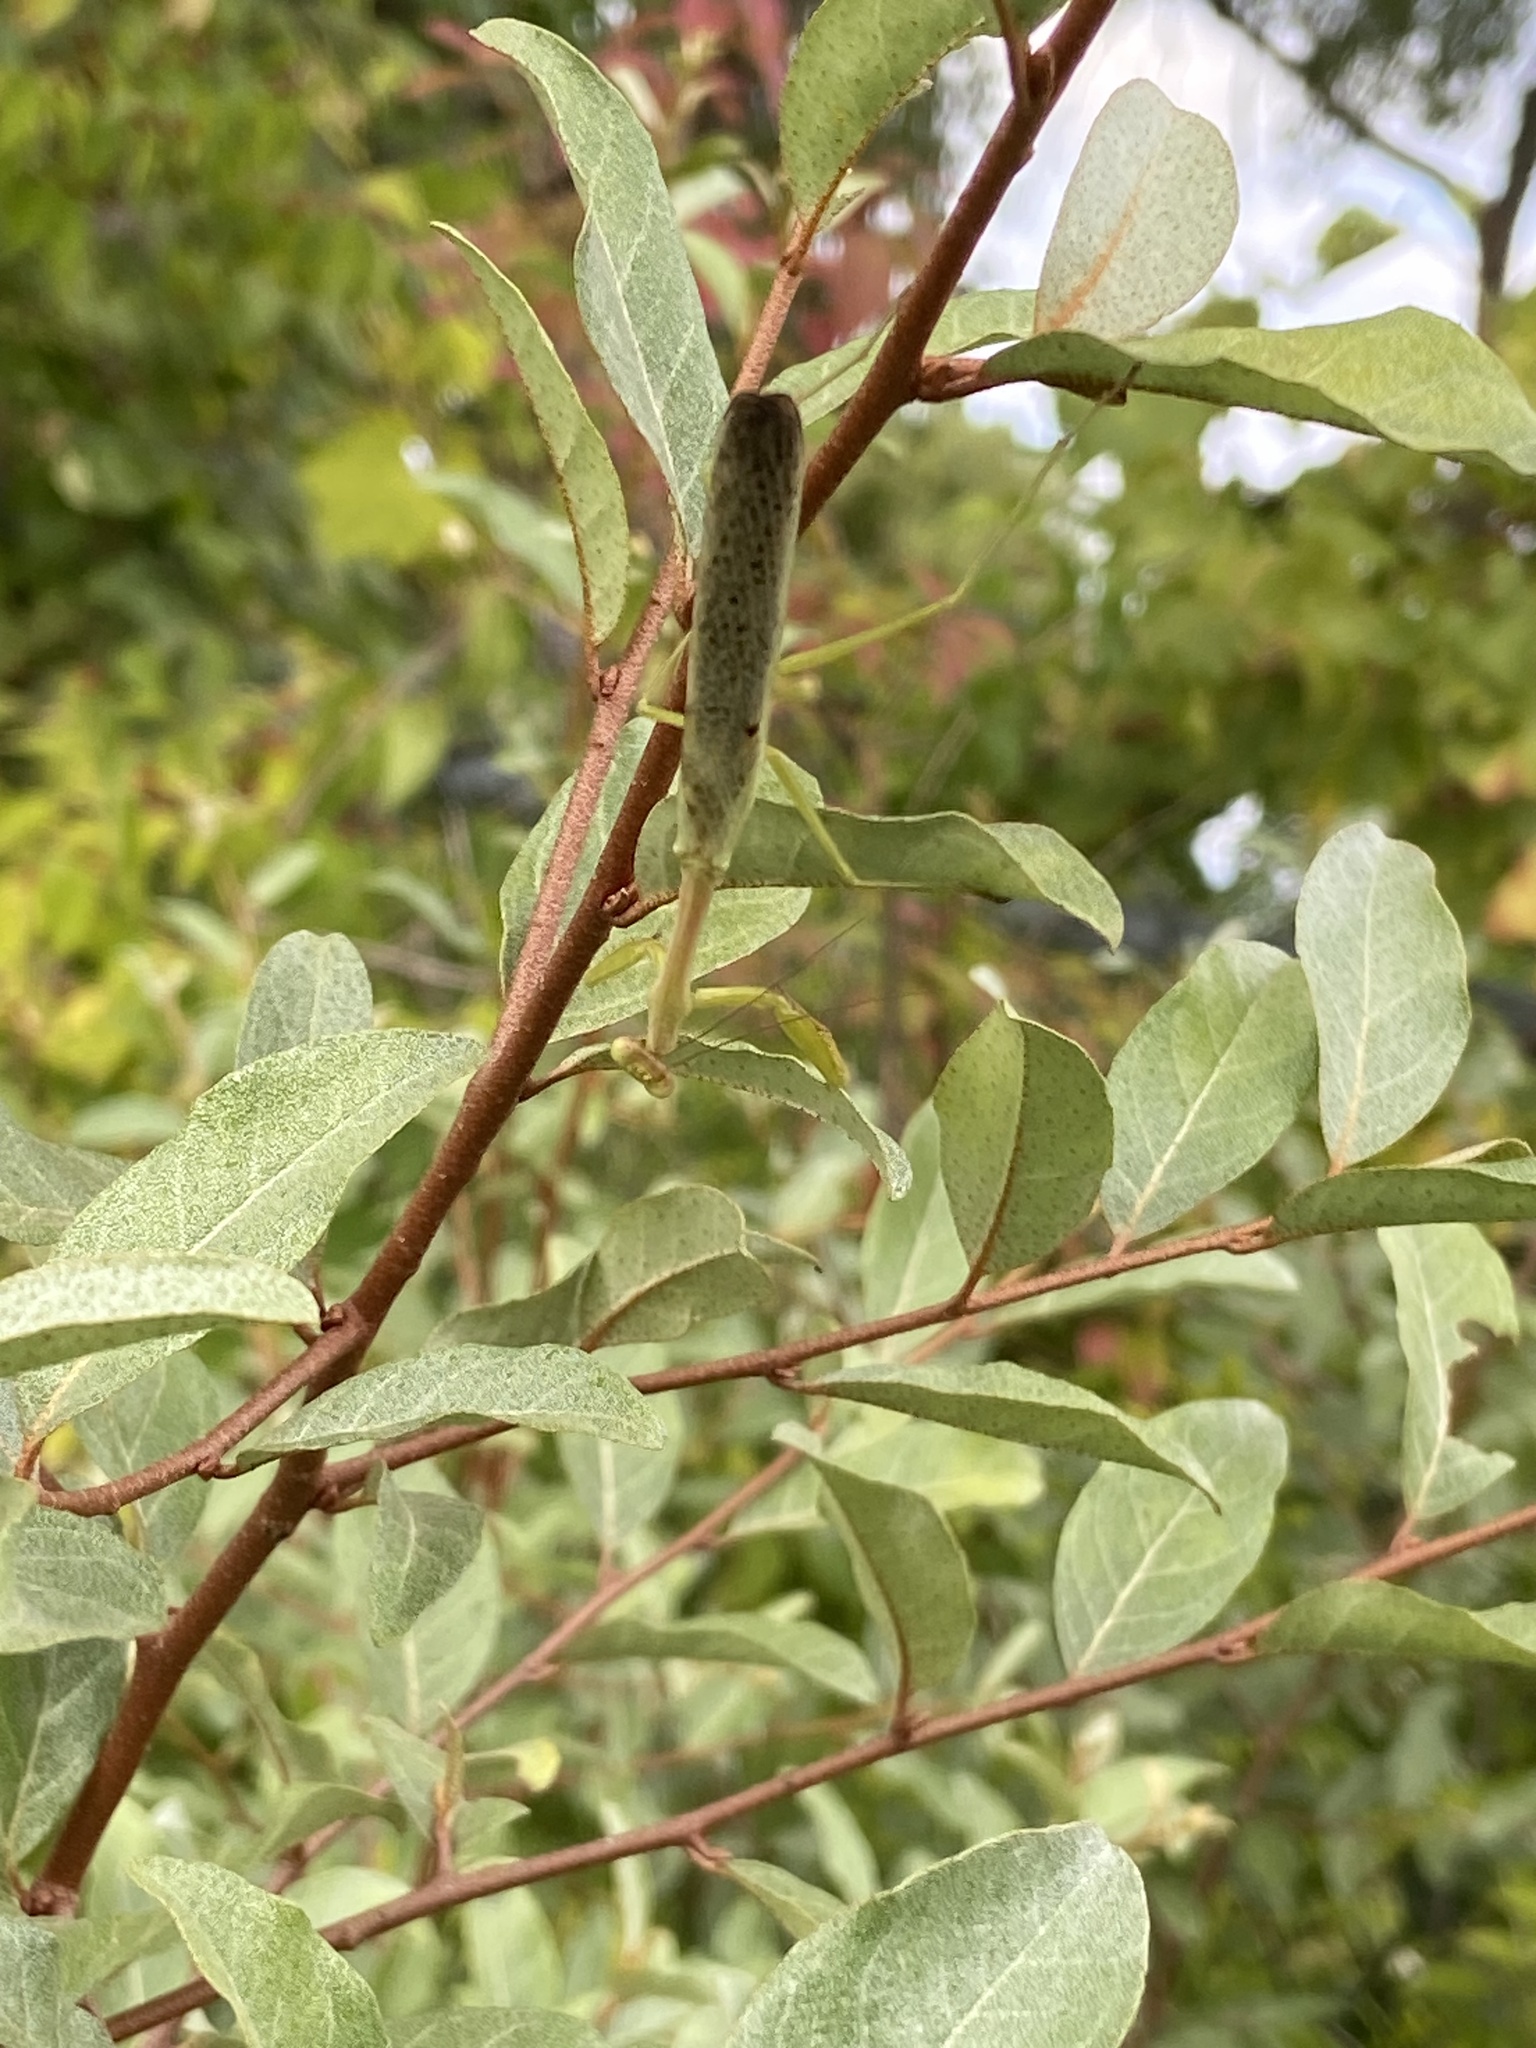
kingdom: Animalia
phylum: Arthropoda
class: Insecta
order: Mantodea
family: Mantidae
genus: Stagmomantis
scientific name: Stagmomantis carolina
